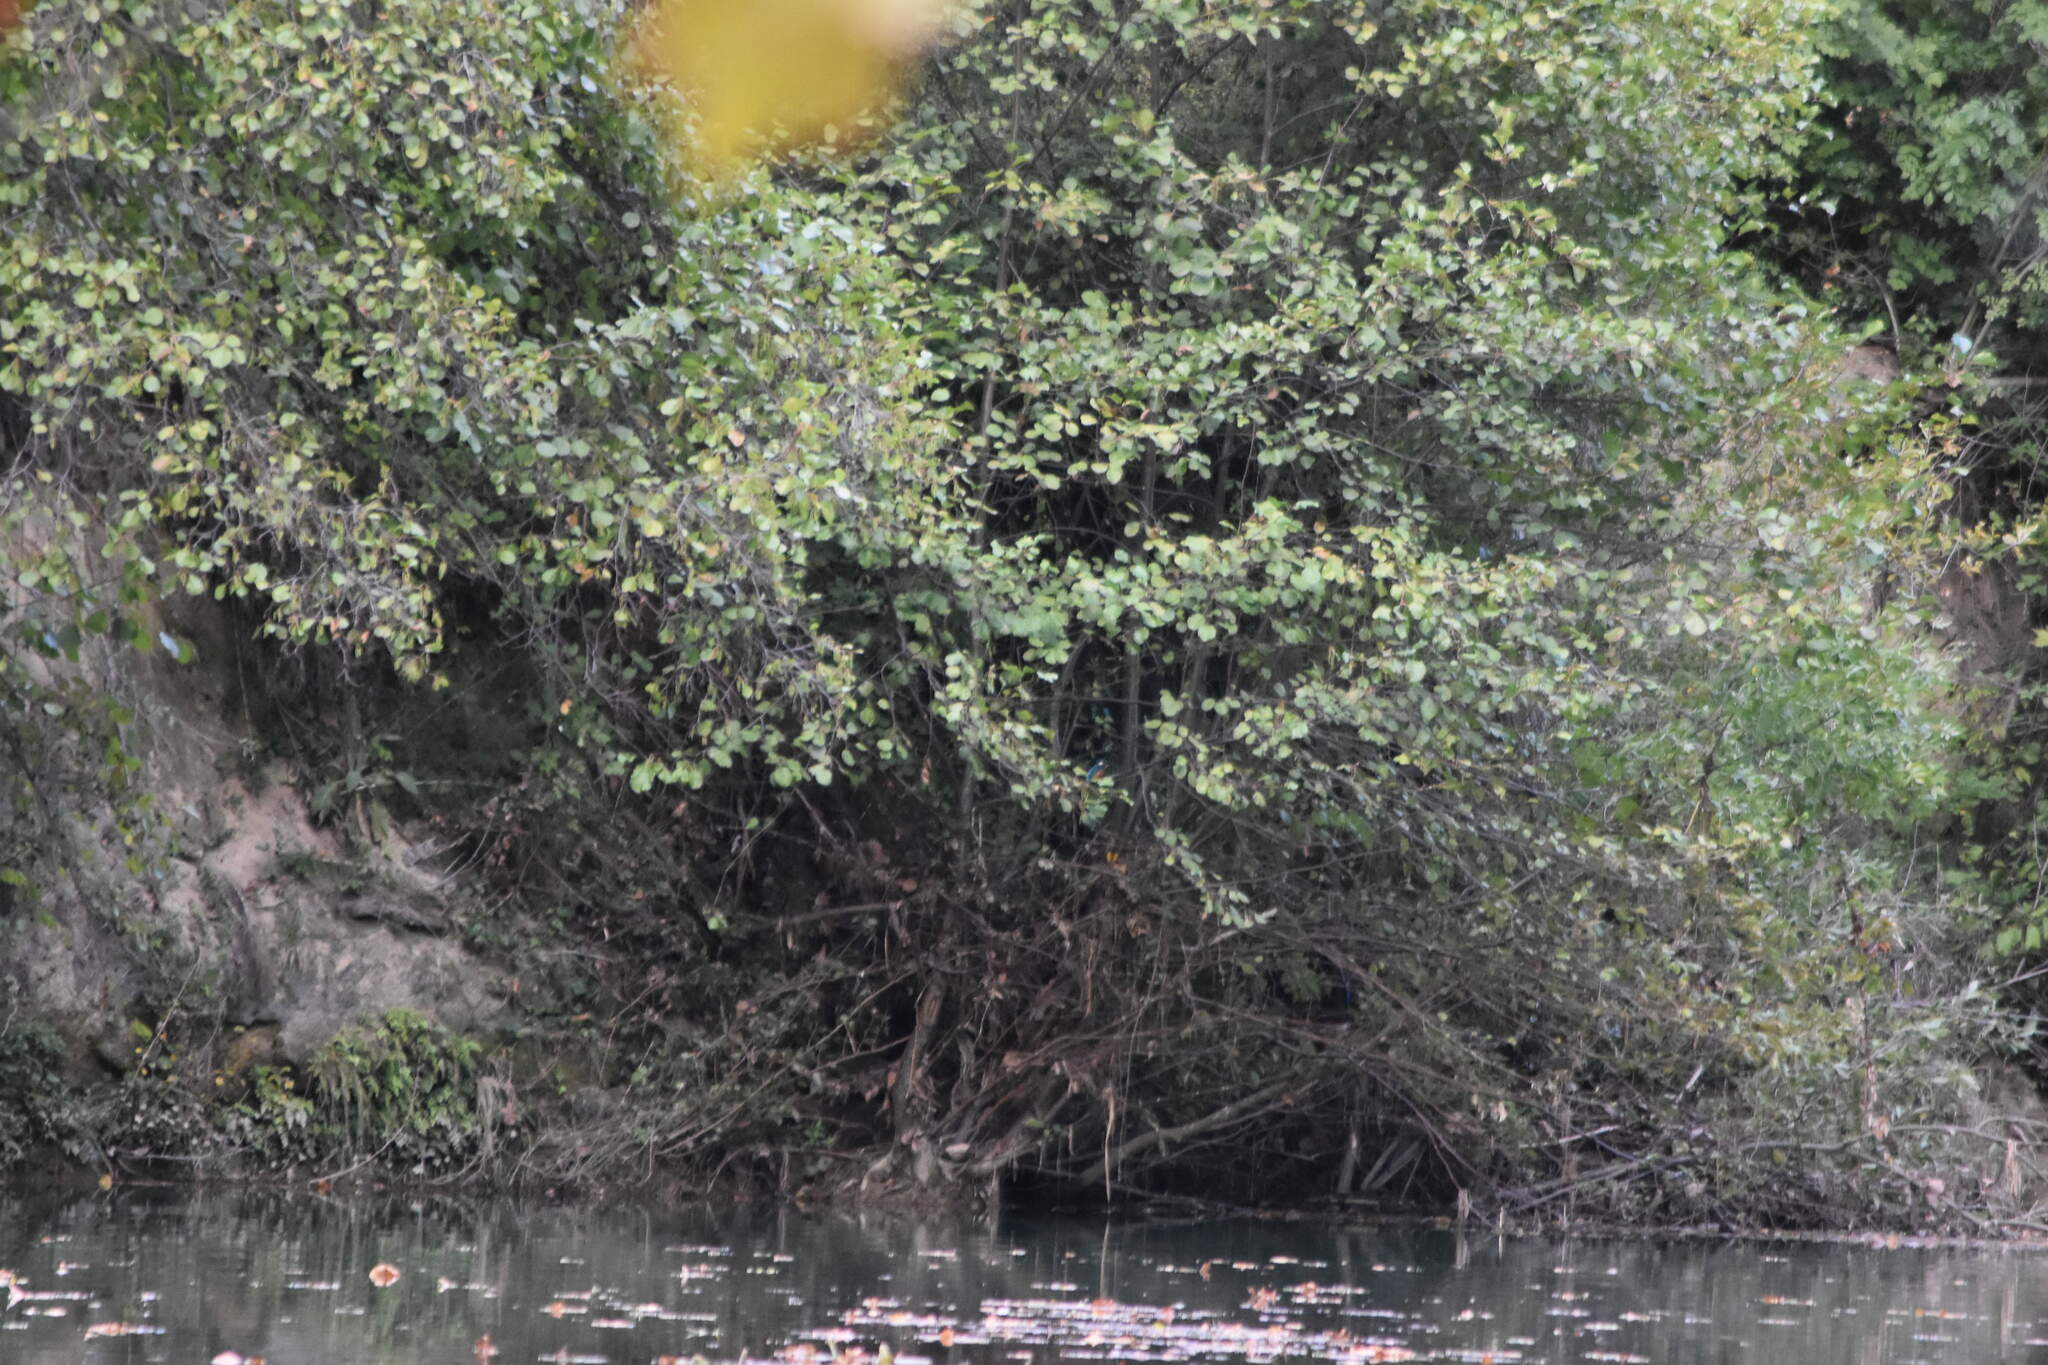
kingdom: Animalia
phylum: Chordata
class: Aves
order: Coraciiformes
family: Alcedinidae
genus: Alcedo
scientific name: Alcedo atthis
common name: Common kingfisher
